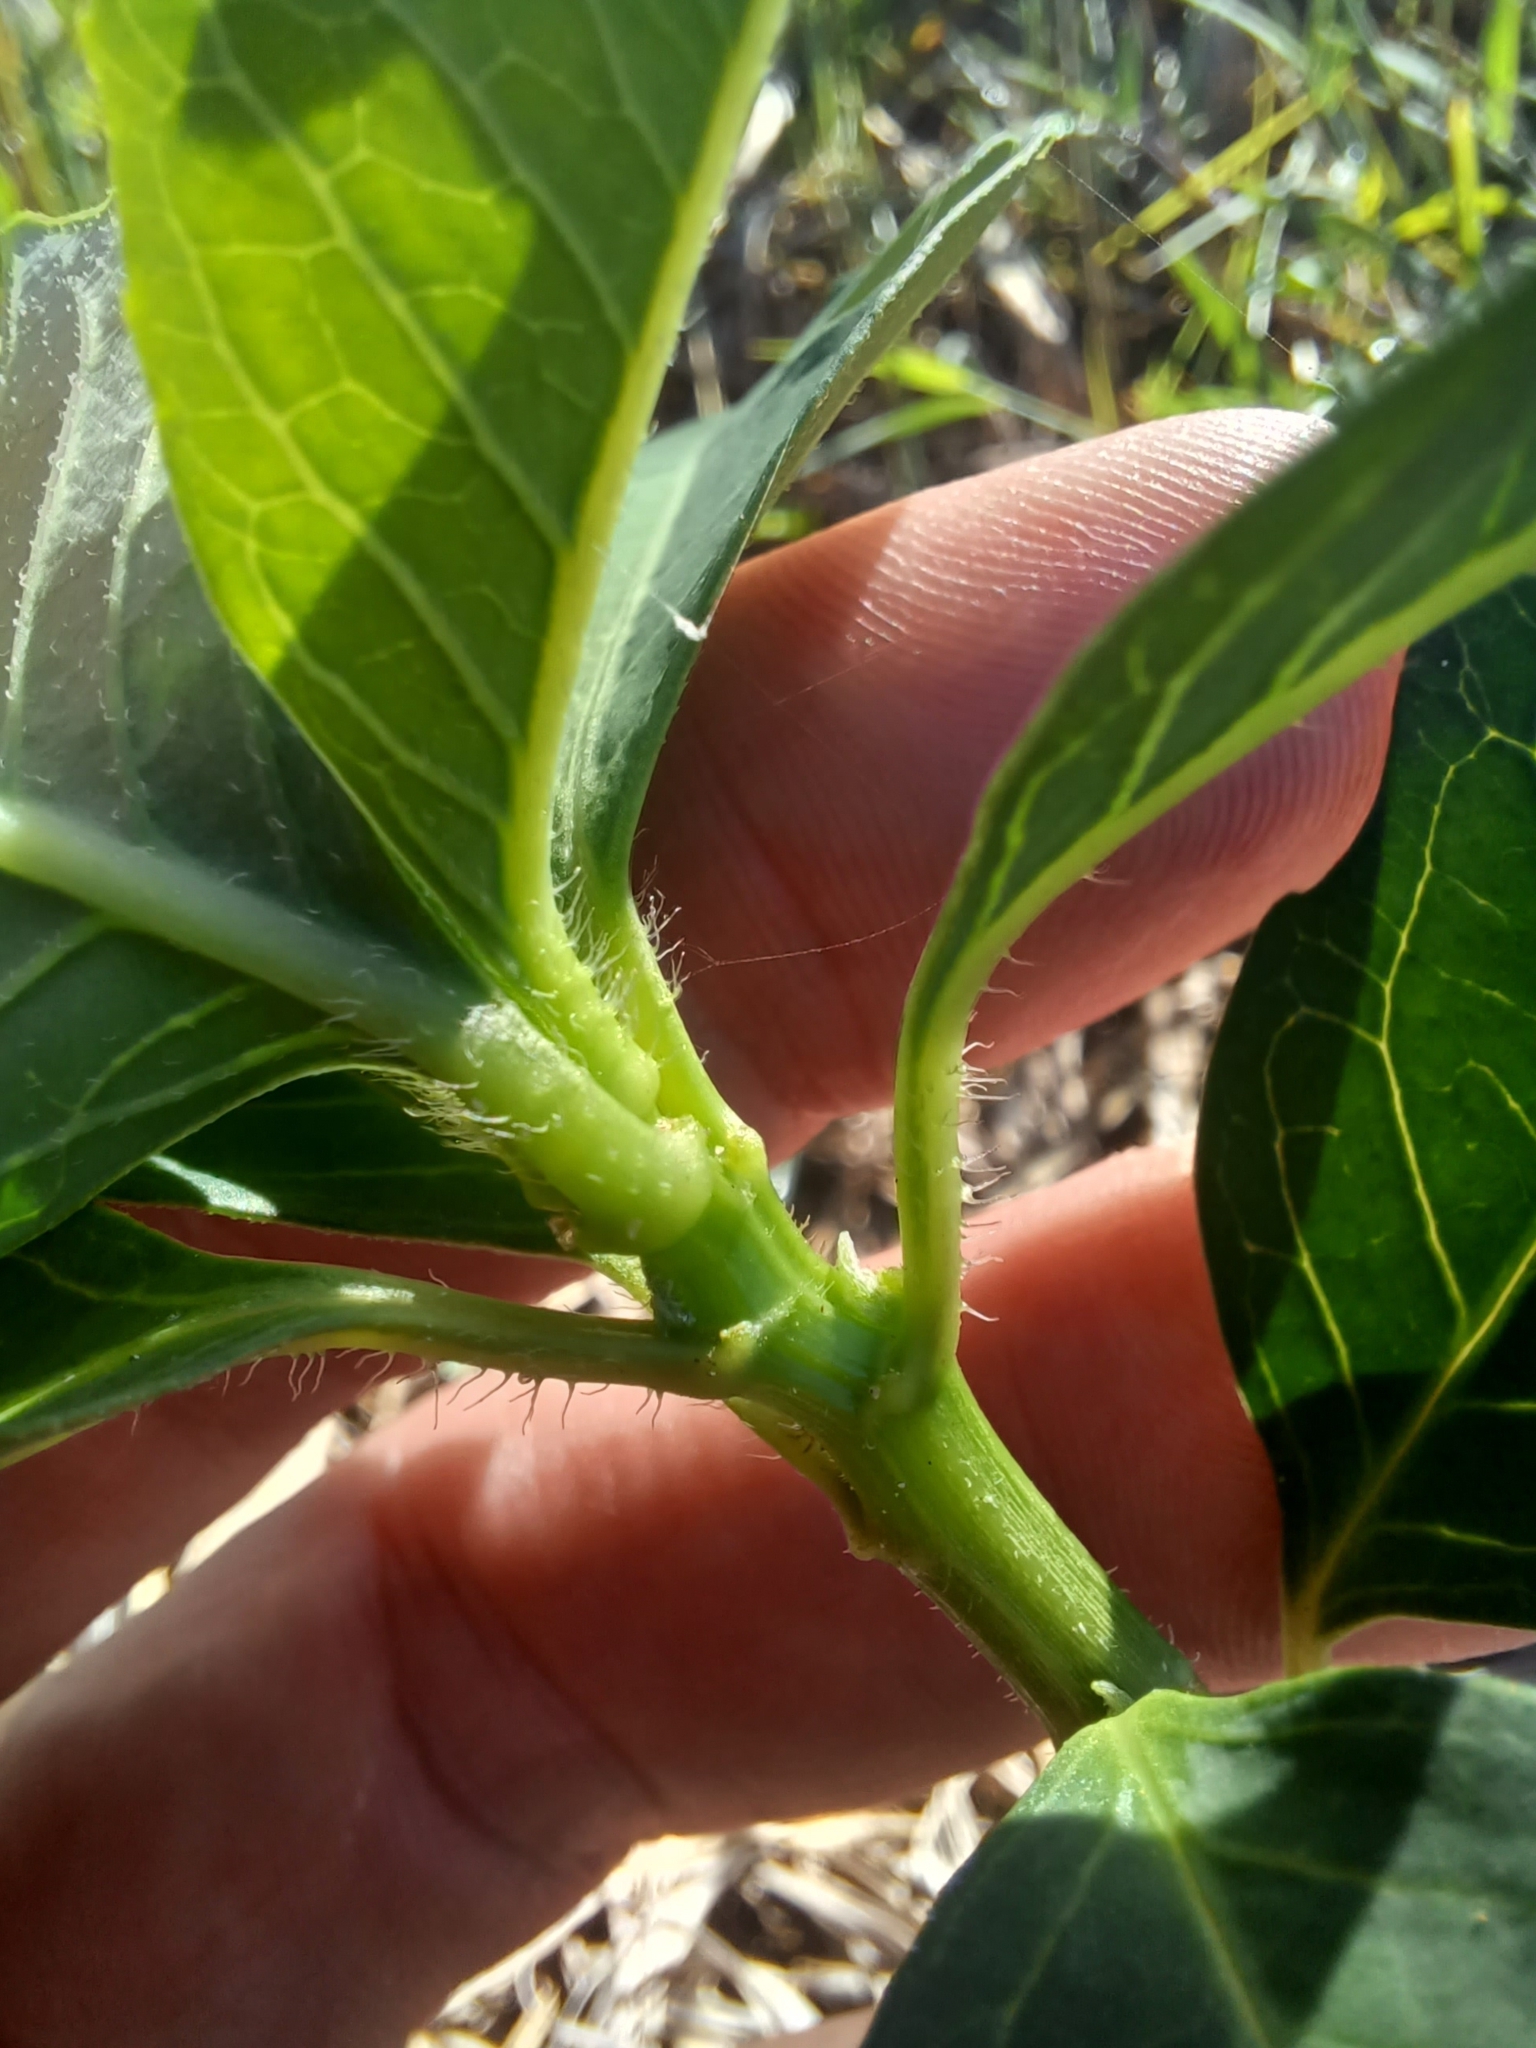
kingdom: Plantae
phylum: Tracheophyta
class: Magnoliopsida
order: Malpighiales
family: Euphorbiaceae
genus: Euphorbia
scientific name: Euphorbia heterophylla
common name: Mexican fireplant
